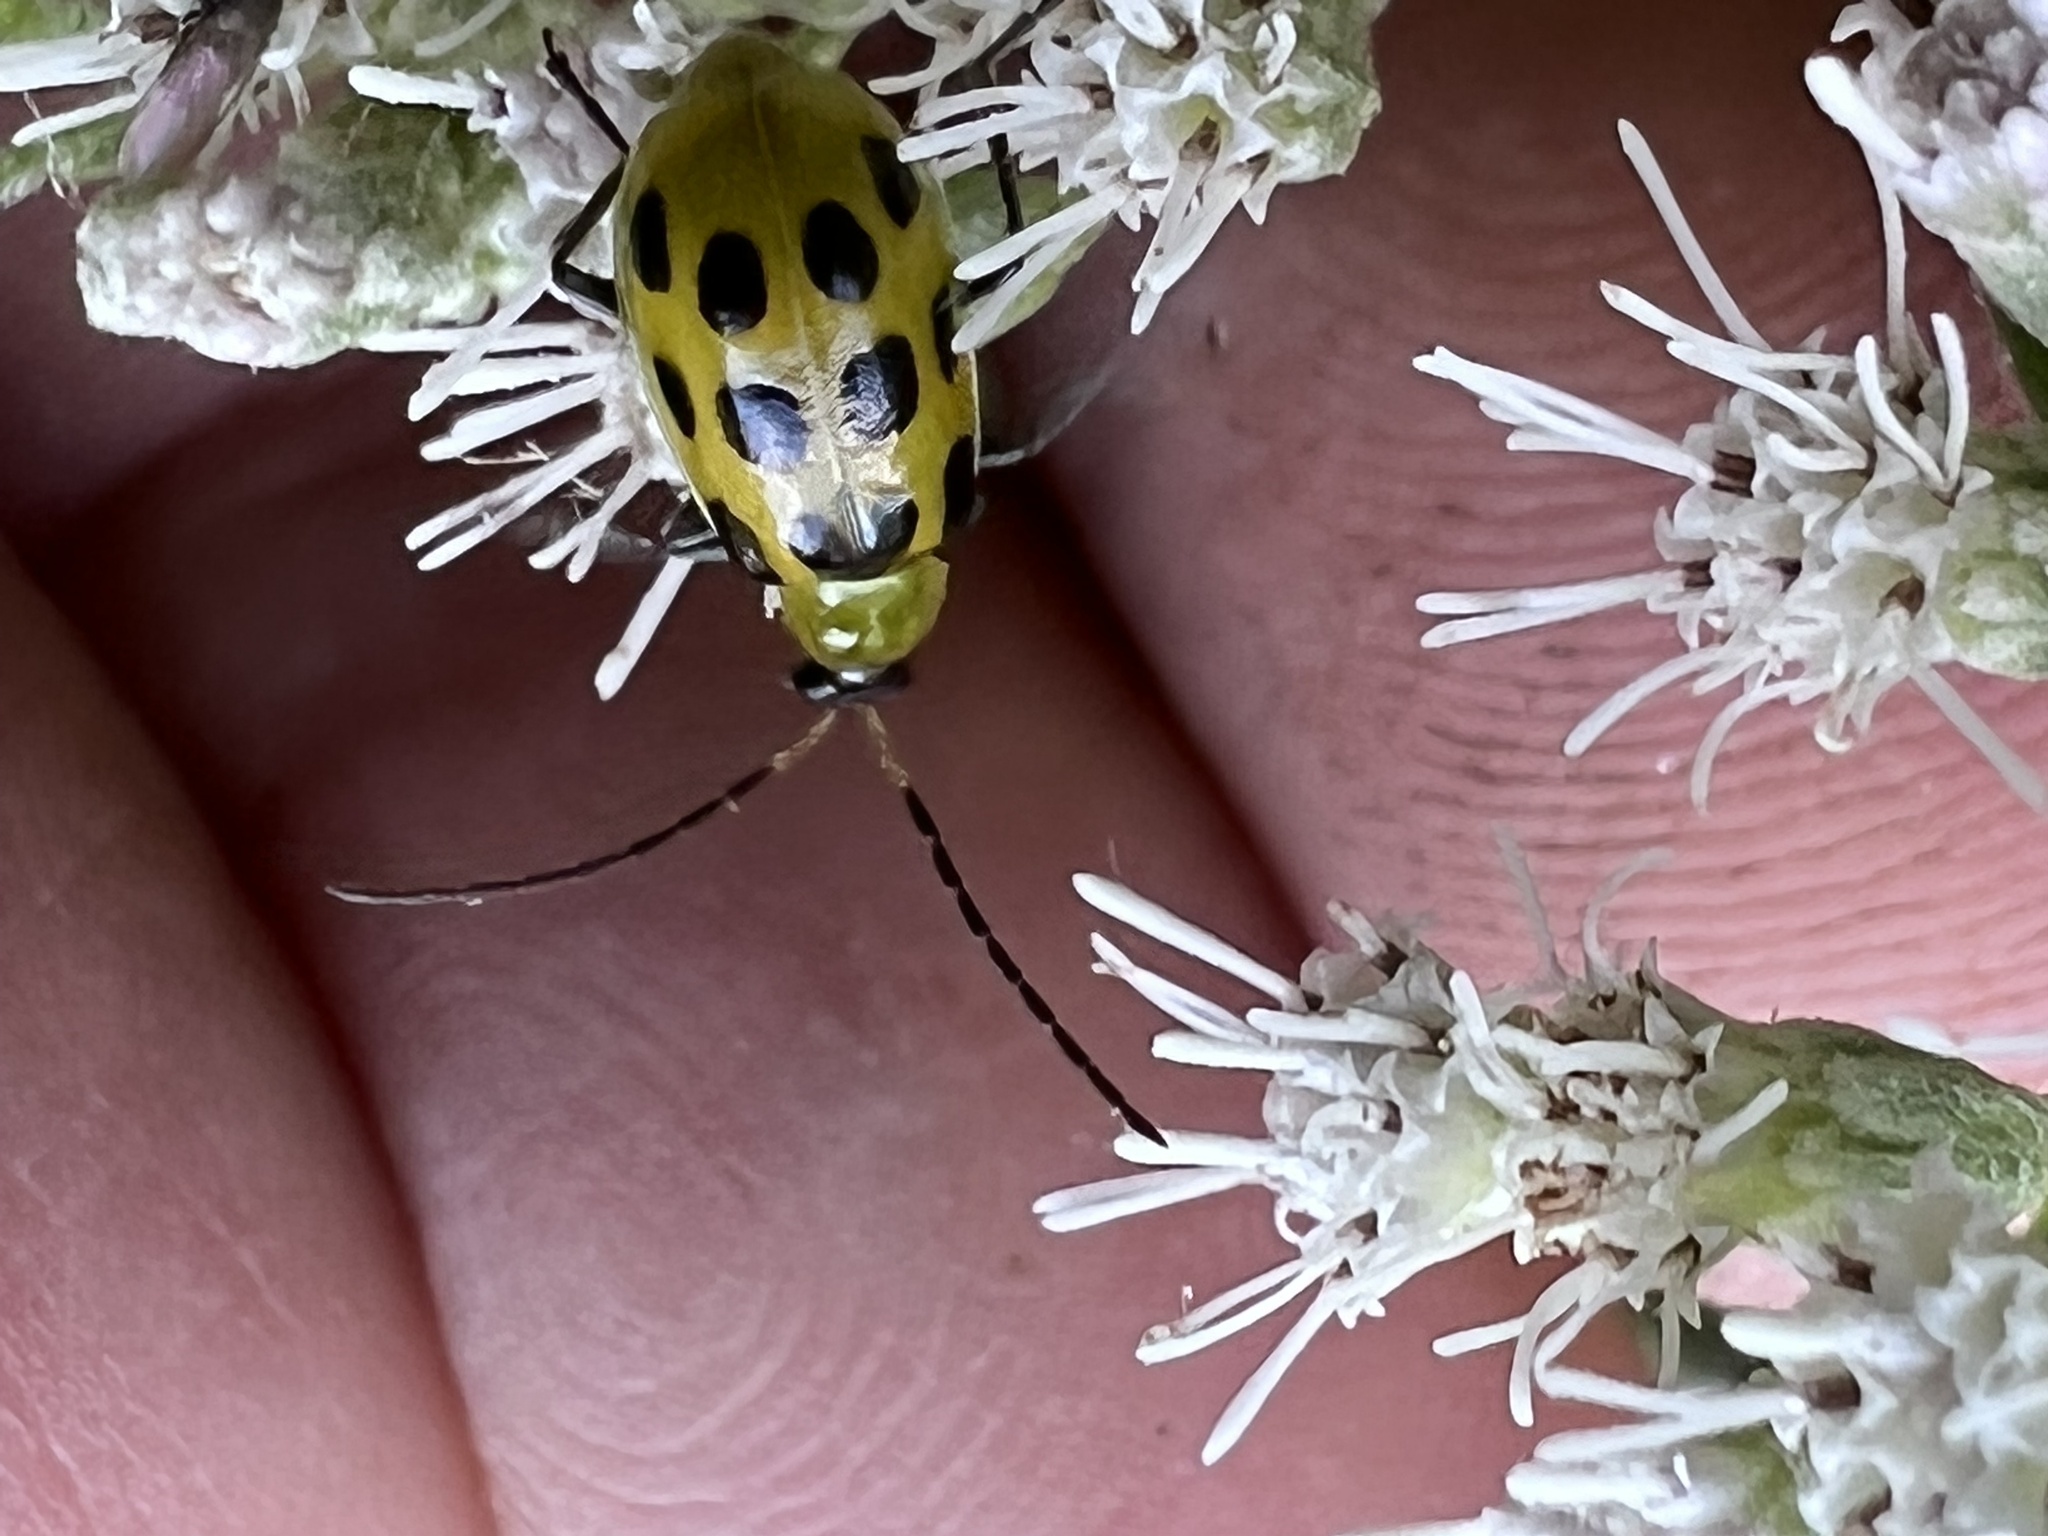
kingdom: Animalia
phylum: Arthropoda
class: Insecta
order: Coleoptera
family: Chrysomelidae
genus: Diabrotica
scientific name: Diabrotica undecimpunctata
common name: Spotted cucumber beetle
